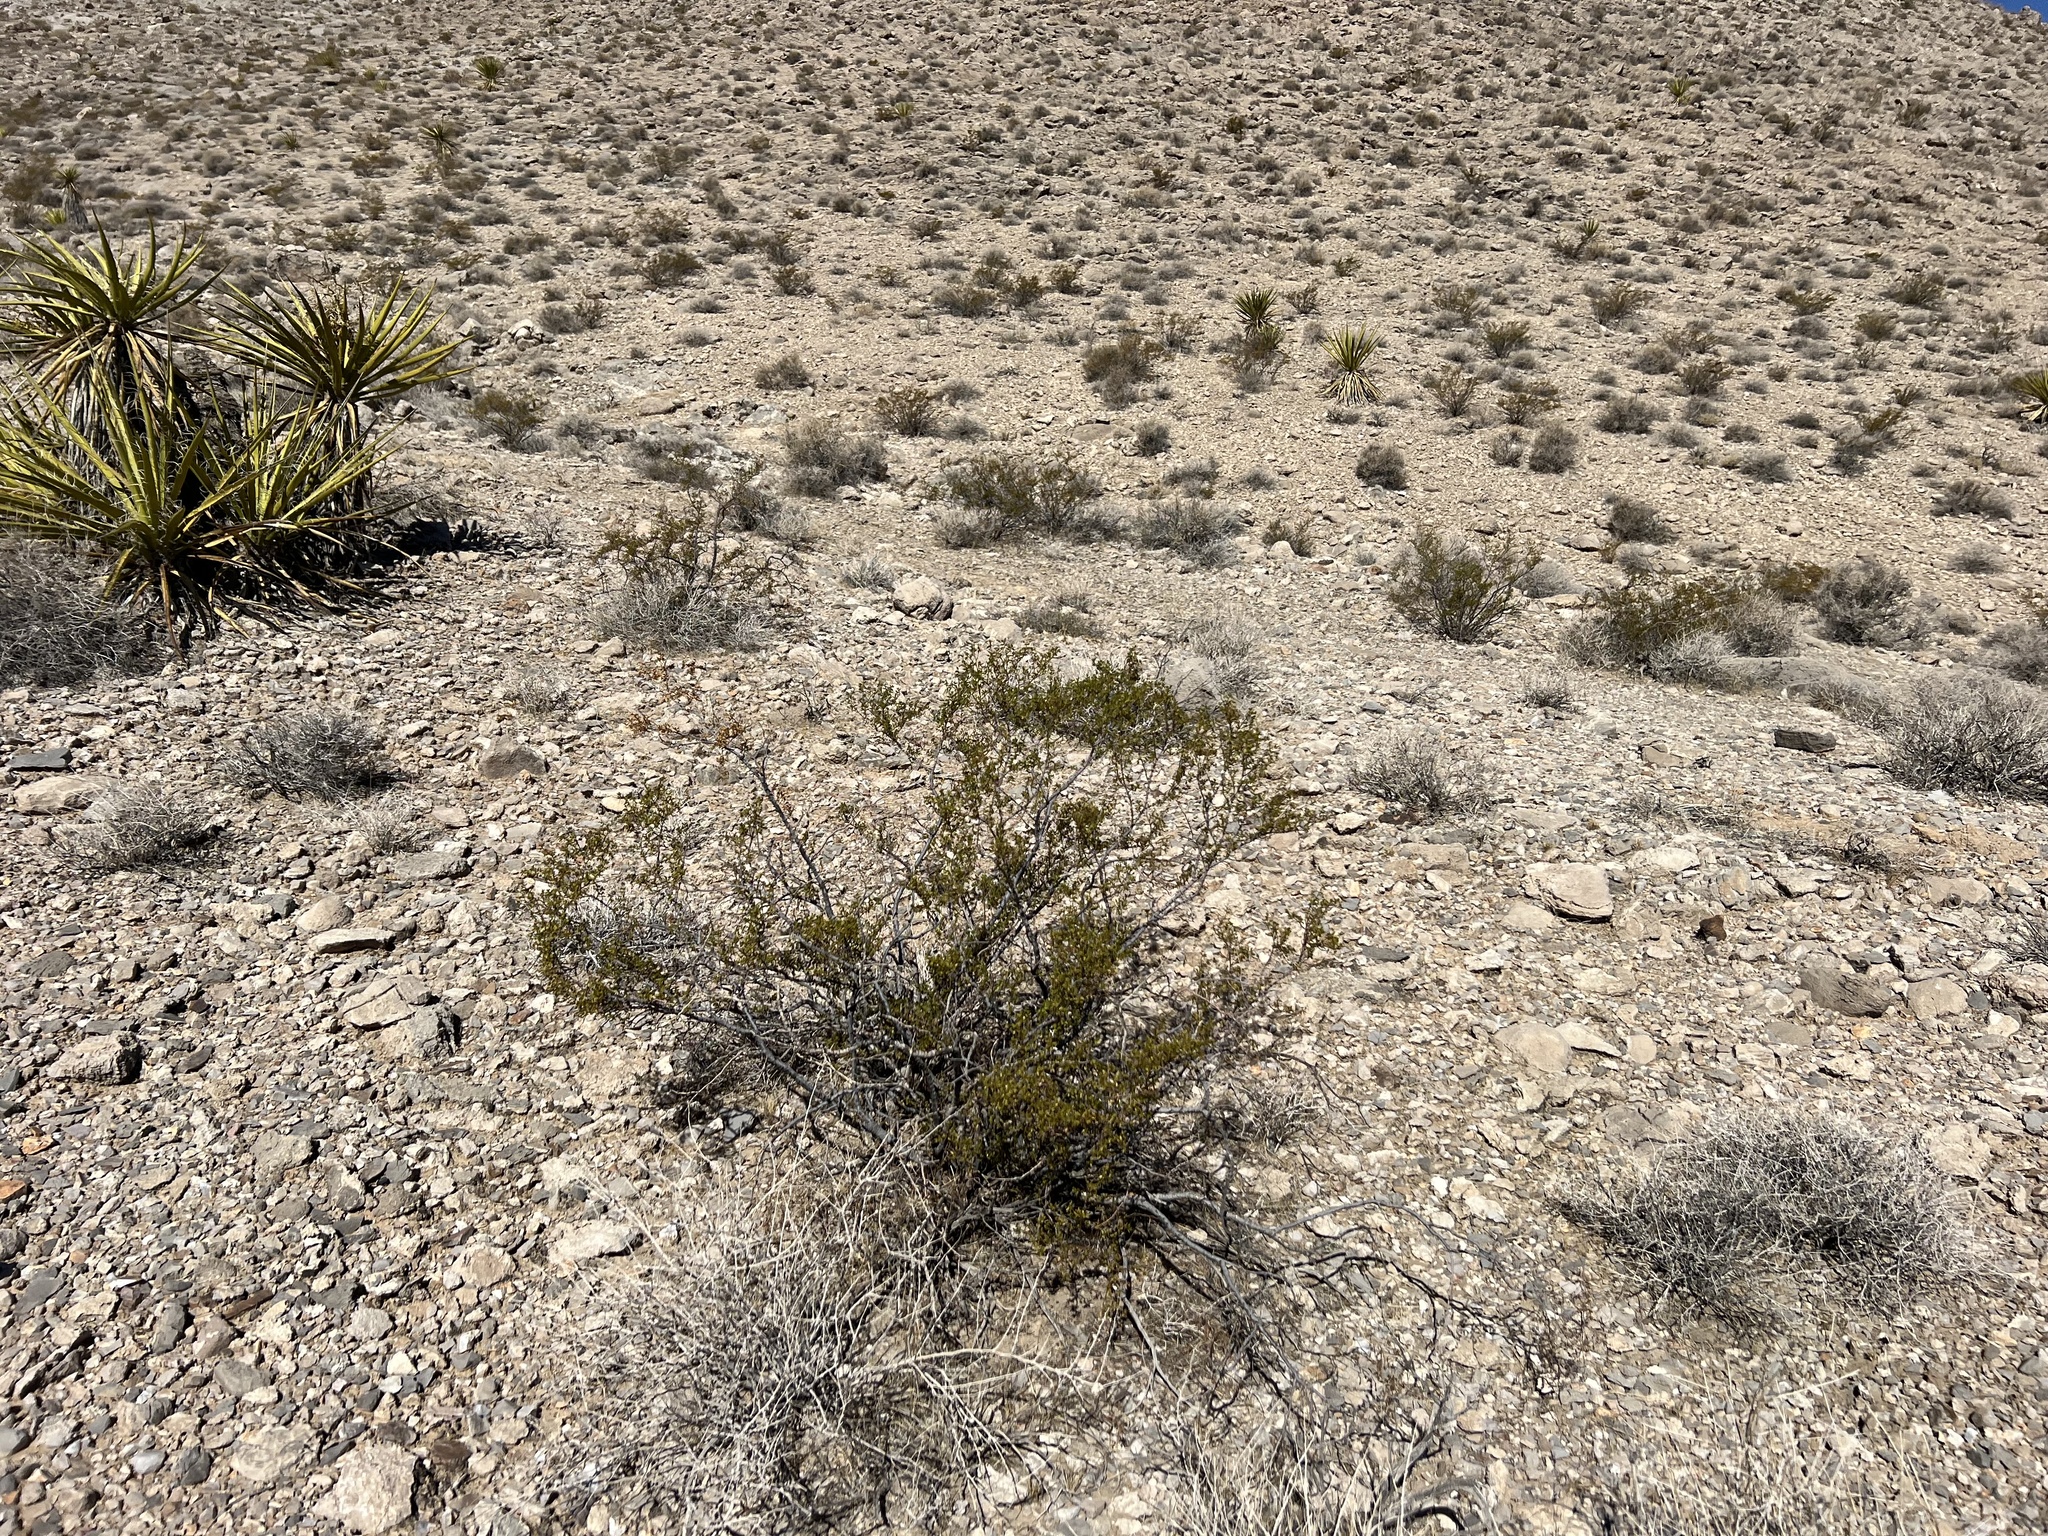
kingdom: Plantae
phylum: Tracheophyta
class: Magnoliopsida
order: Zygophyllales
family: Zygophyllaceae
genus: Larrea
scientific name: Larrea tridentata
